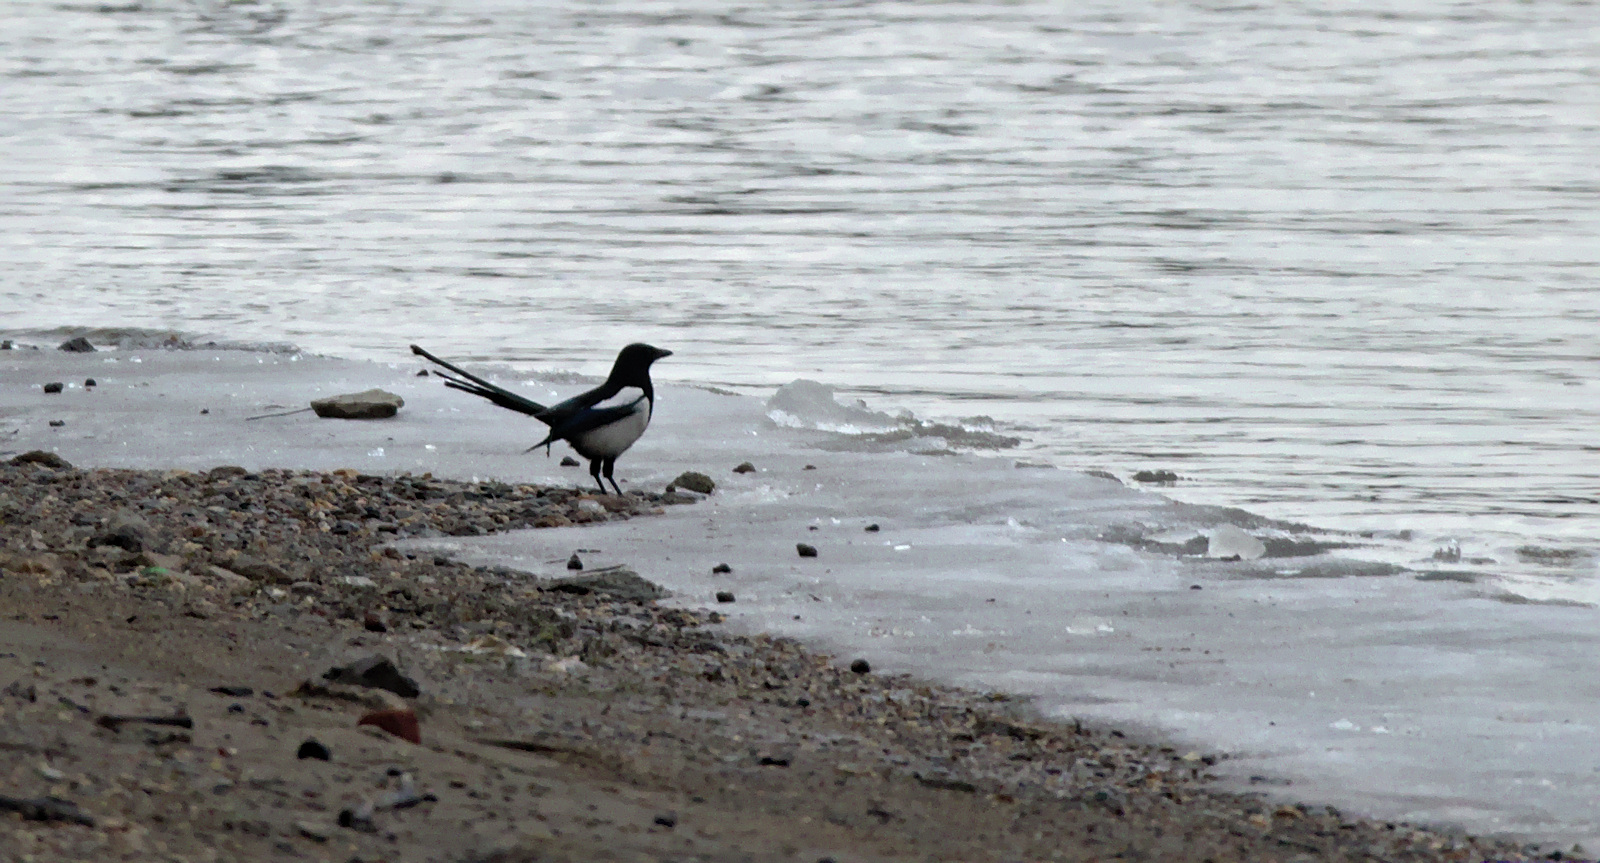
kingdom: Animalia
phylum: Chordata
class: Aves
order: Passeriformes
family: Corvidae
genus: Pica
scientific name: Pica pica
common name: Eurasian magpie
